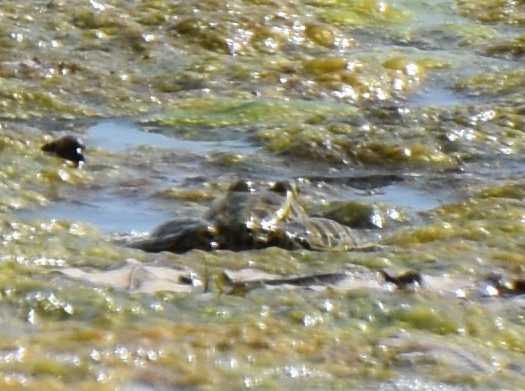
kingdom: Animalia
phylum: Chordata
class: Amphibia
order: Anura
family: Ranidae
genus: Lithobates
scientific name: Lithobates pipiens
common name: Northern leopard frog
